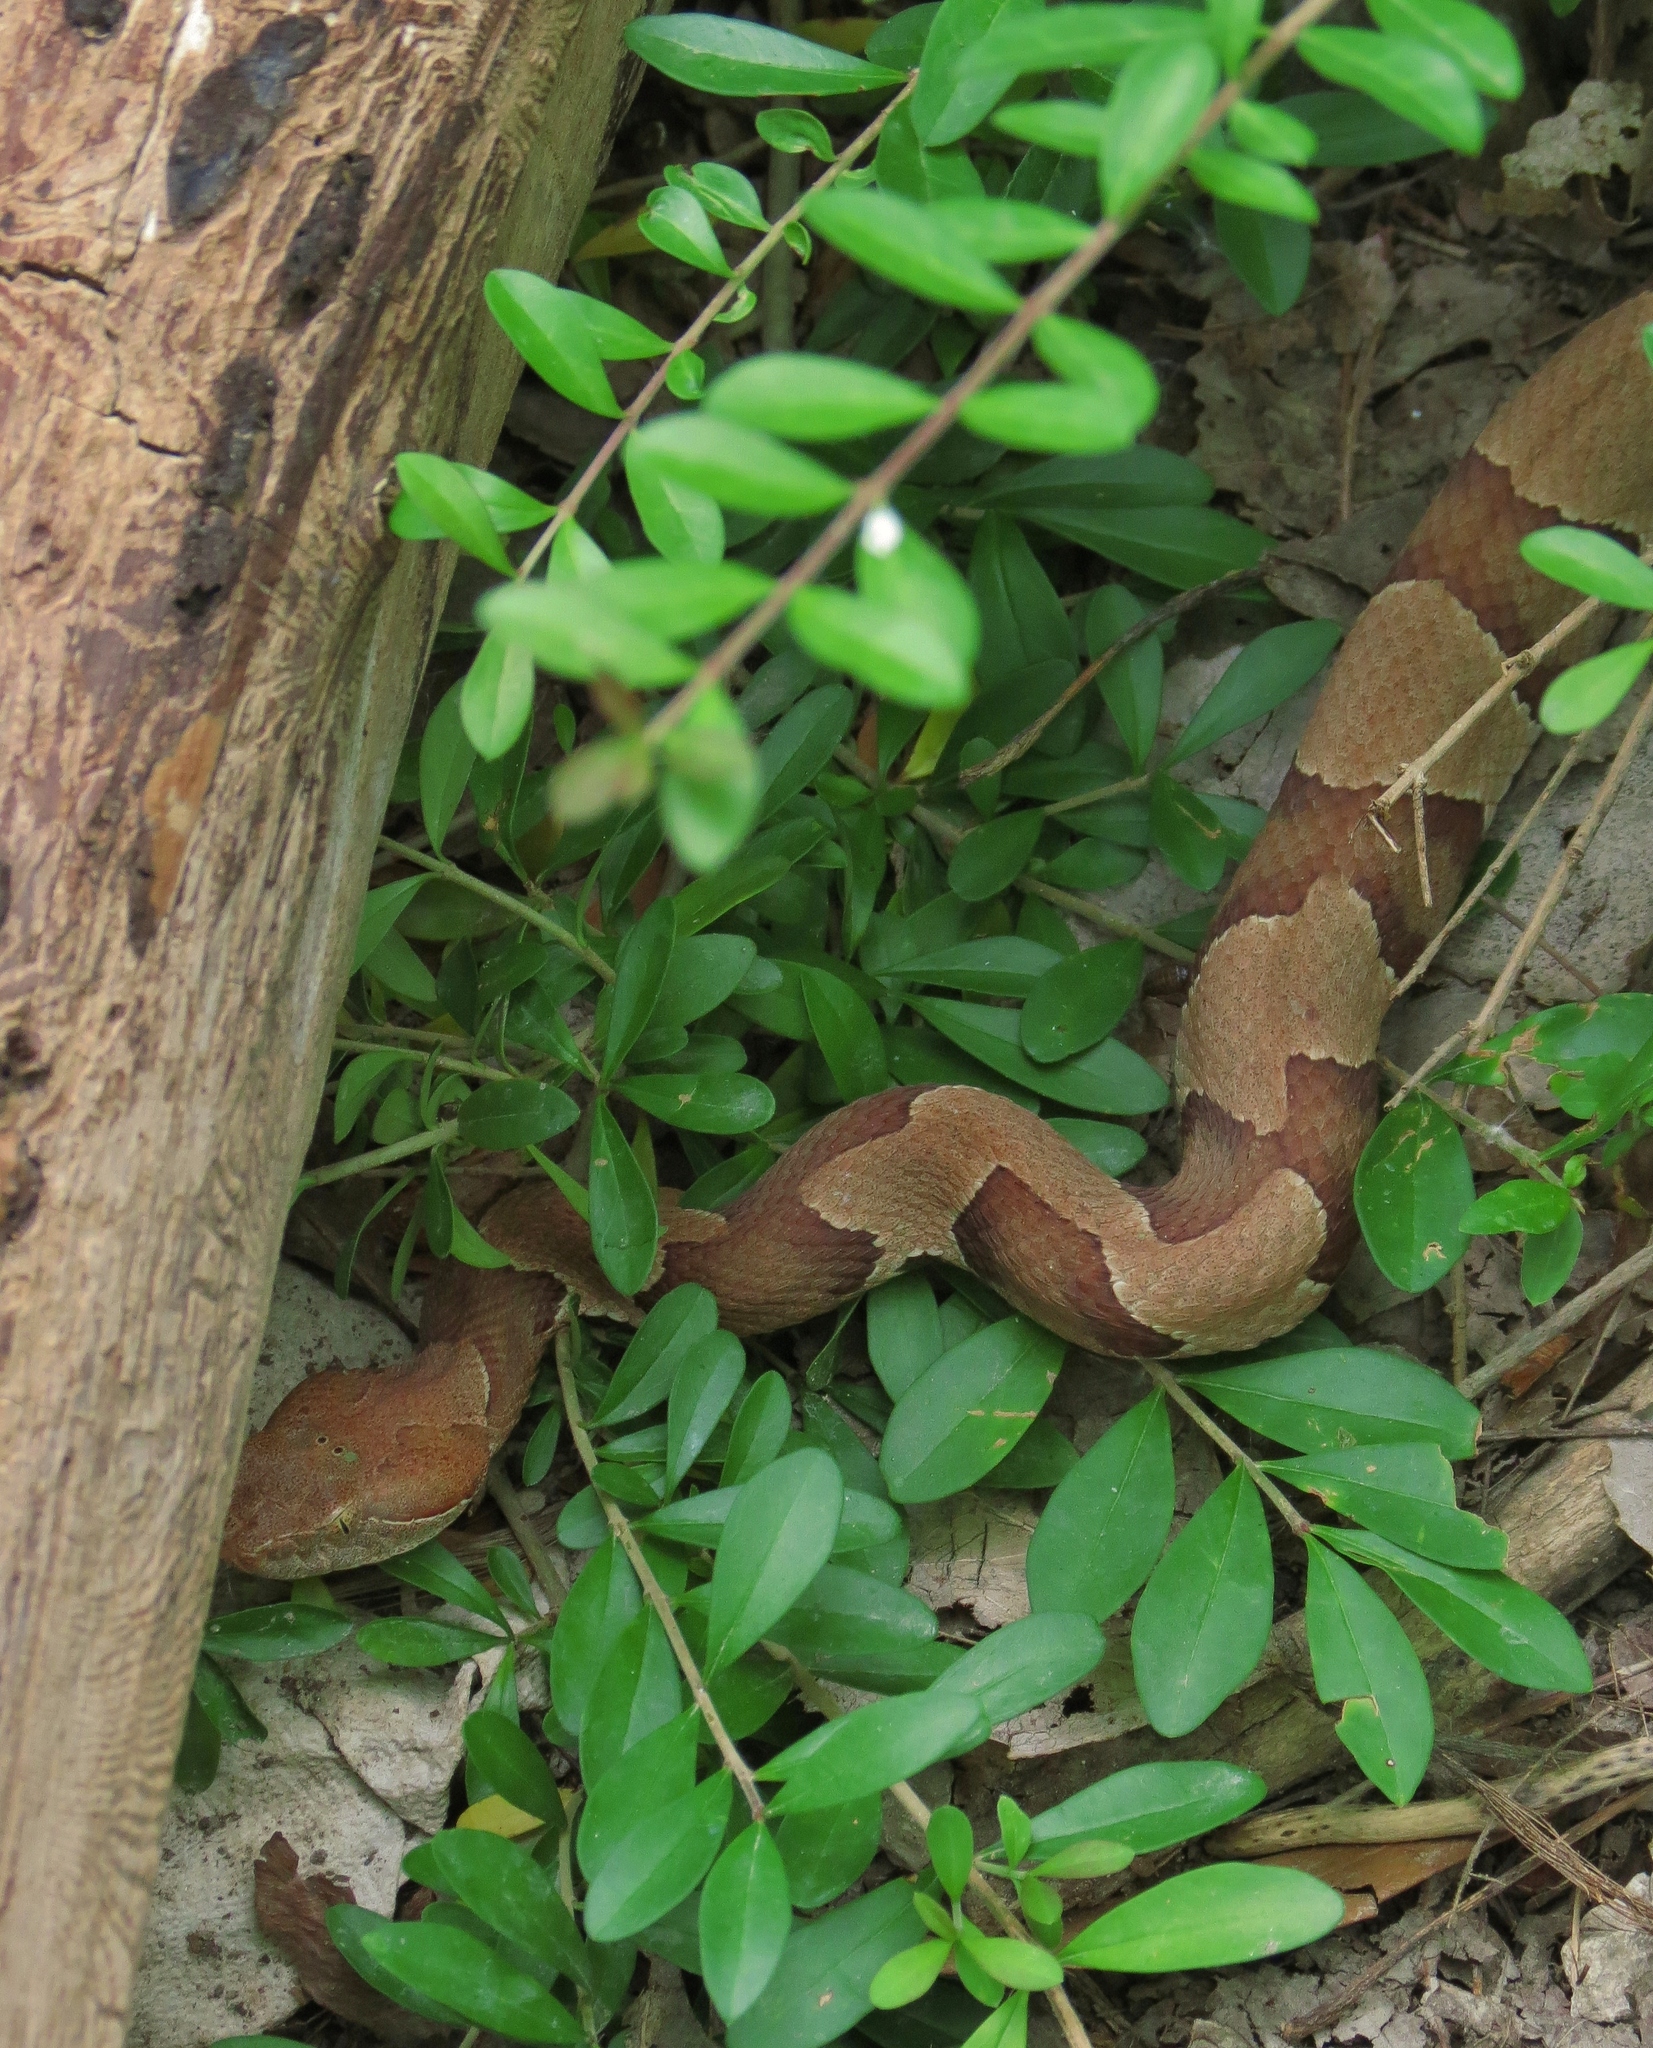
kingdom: Animalia
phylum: Chordata
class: Squamata
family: Viperidae
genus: Agkistrodon
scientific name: Agkistrodon laticinctus
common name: Broad-banded copperhead
